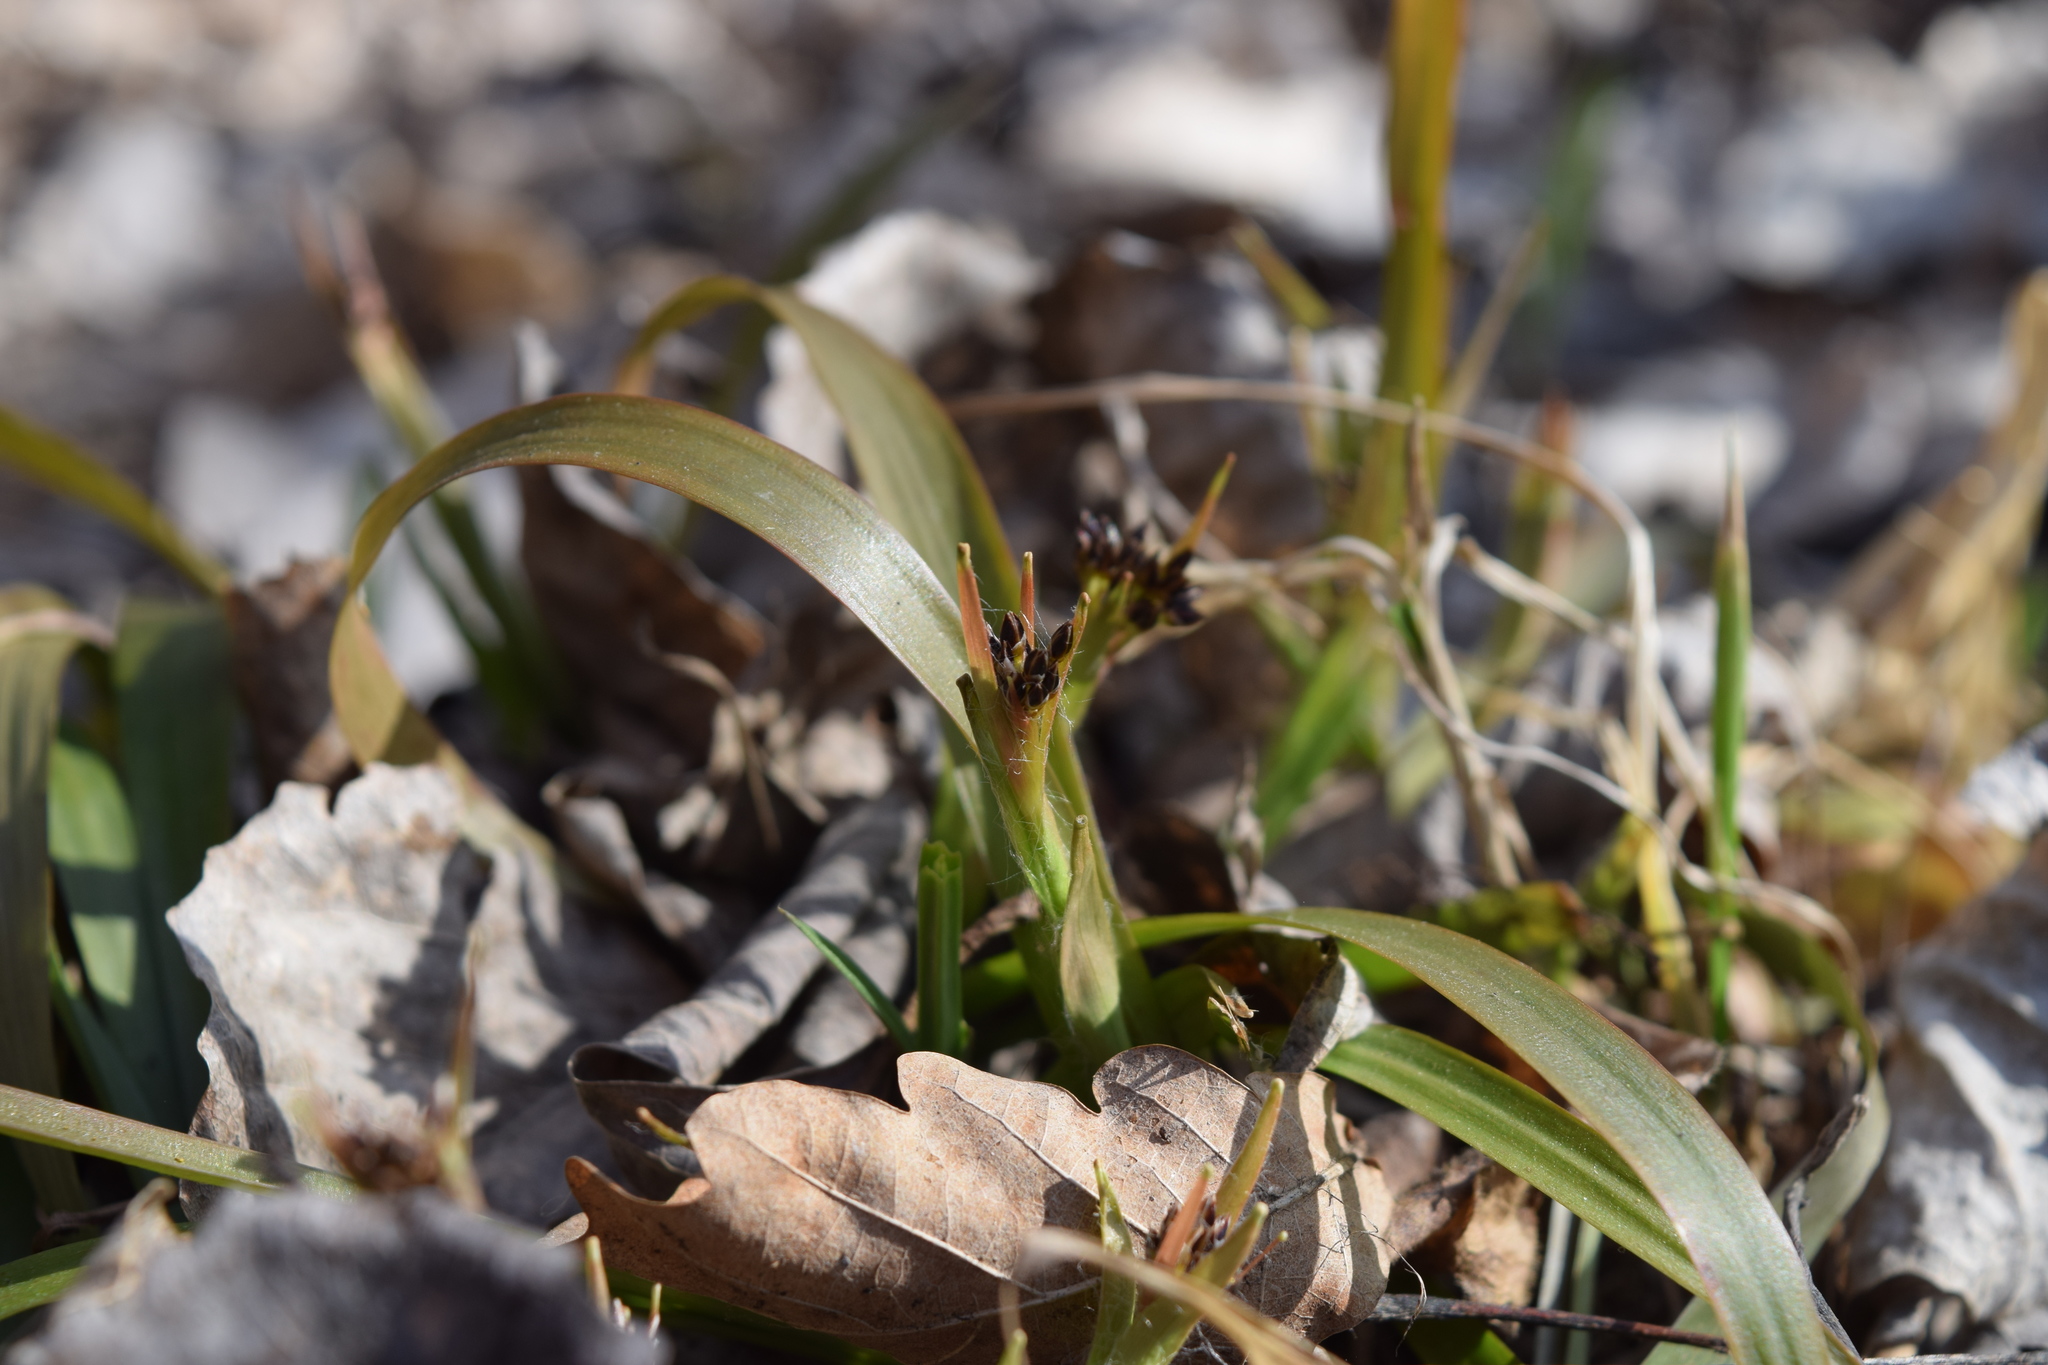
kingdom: Plantae
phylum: Tracheophyta
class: Liliopsida
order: Poales
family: Juncaceae
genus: Luzula
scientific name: Luzula pilosa
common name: Hairy wood-rush
